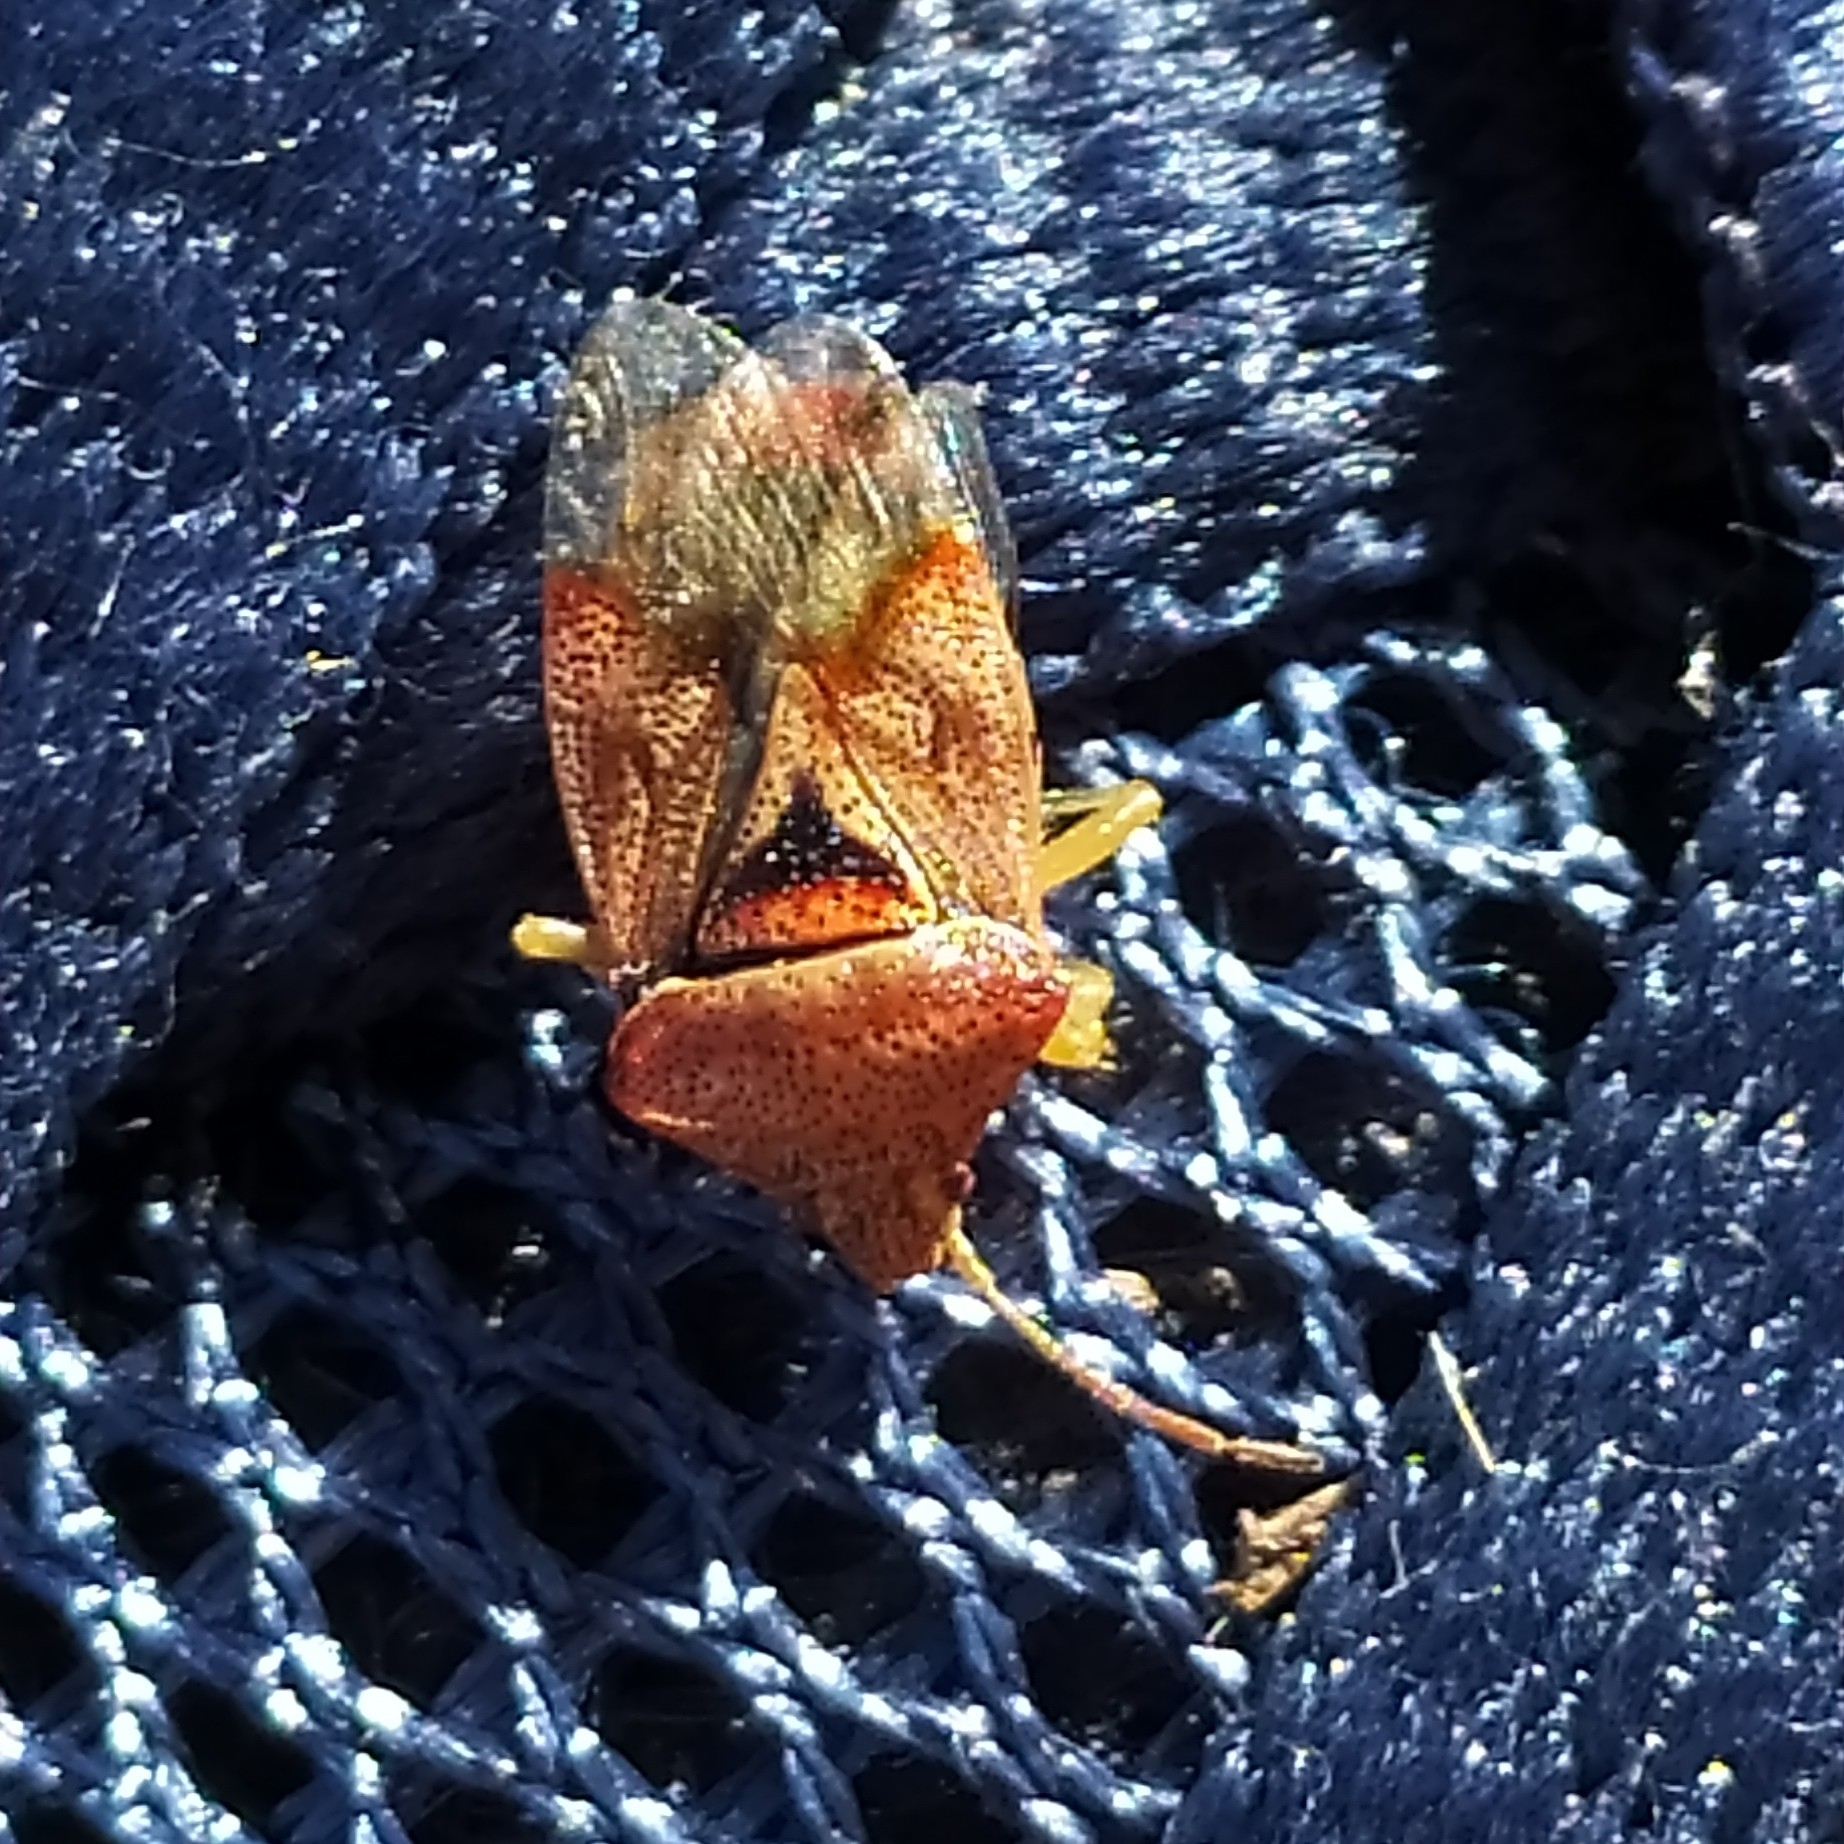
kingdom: Animalia
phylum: Arthropoda
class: Insecta
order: Hemiptera
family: Acanthosomatidae
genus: Elasmucha
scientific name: Elasmucha grisea
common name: Parent bug
